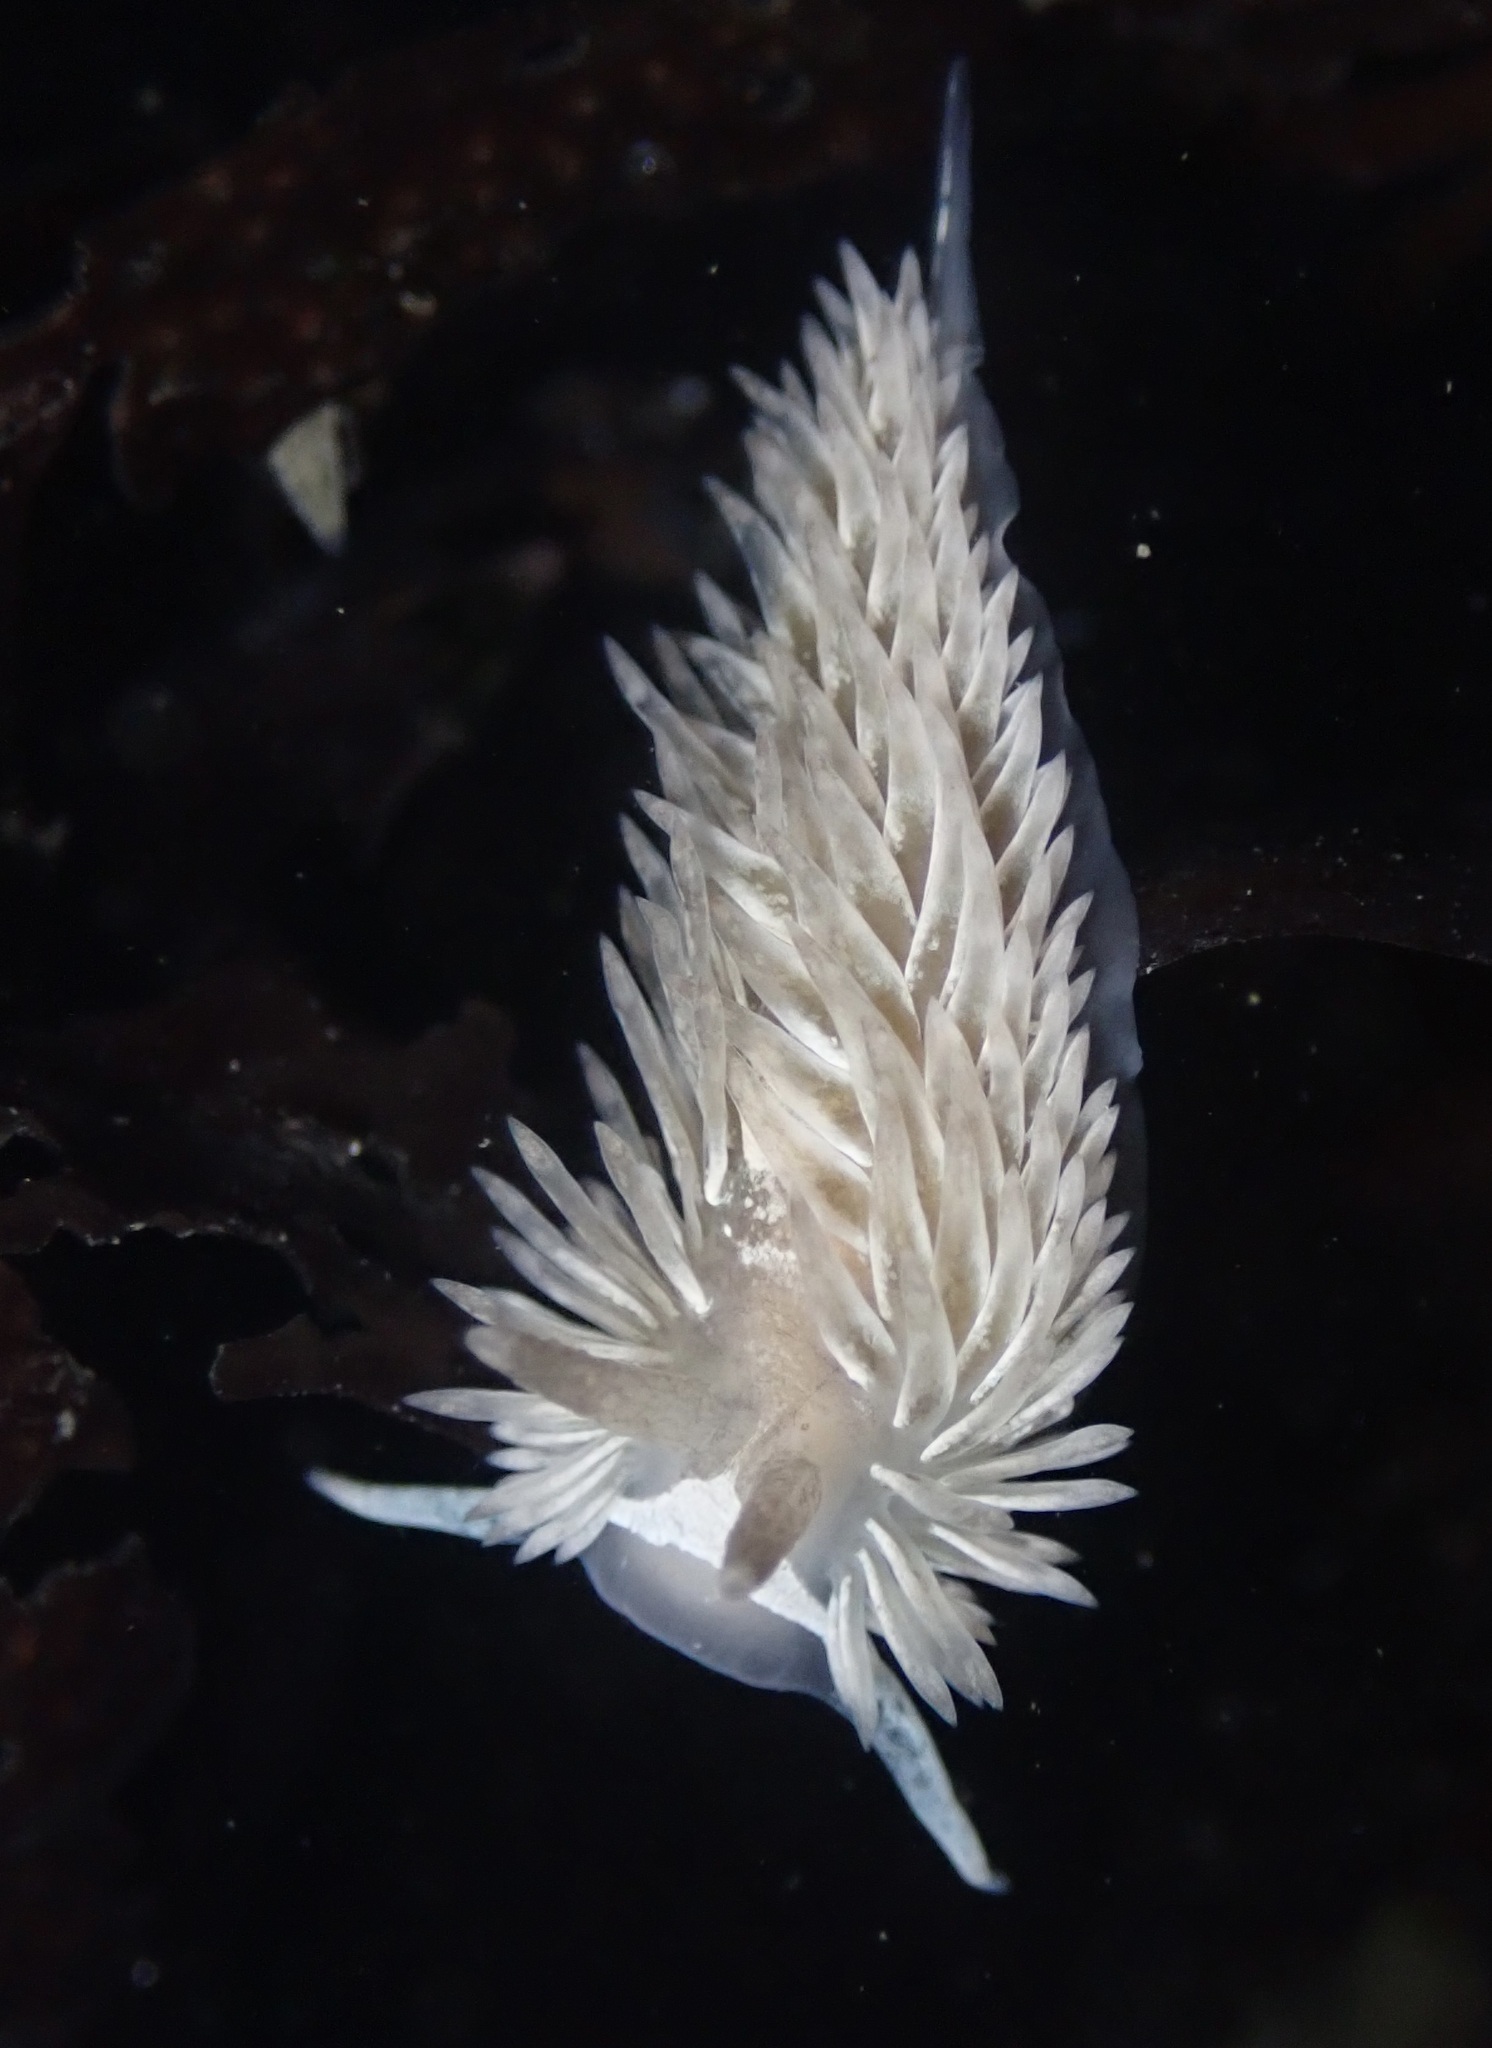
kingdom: Animalia
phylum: Mollusca
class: Gastropoda
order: Nudibranchia
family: Aeolidiidae
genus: Aeolidia
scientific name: Aeolidia loui
